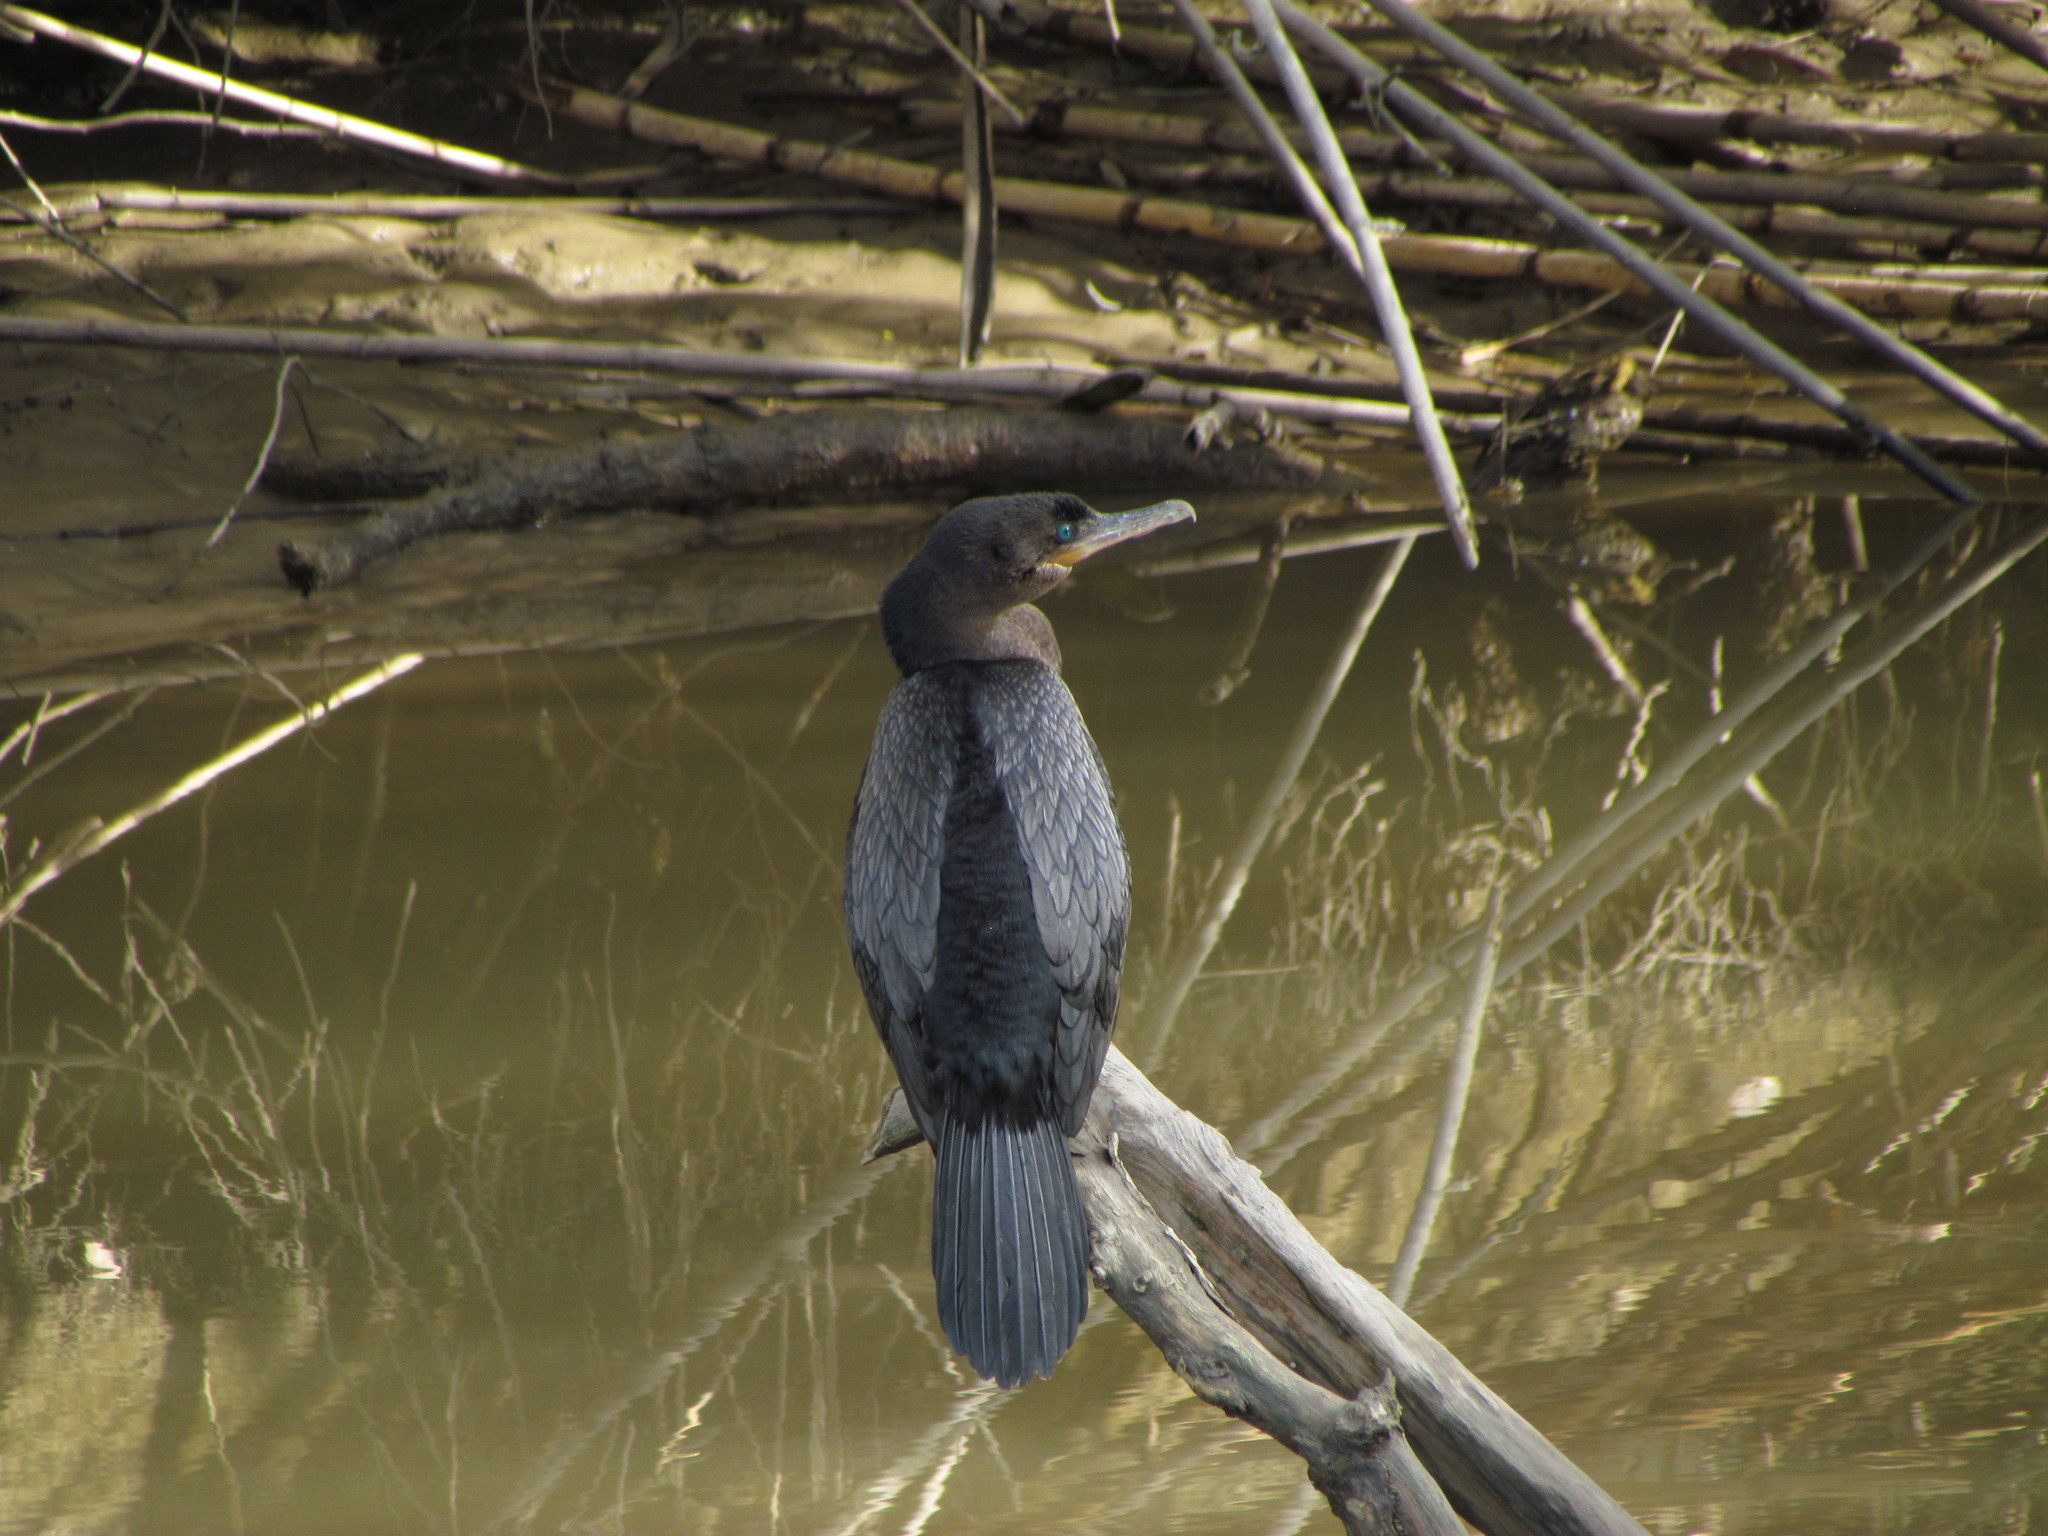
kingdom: Animalia
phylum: Chordata
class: Aves
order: Suliformes
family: Phalacrocoracidae
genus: Phalacrocorax
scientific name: Phalacrocorax brasilianus
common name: Neotropic cormorant
